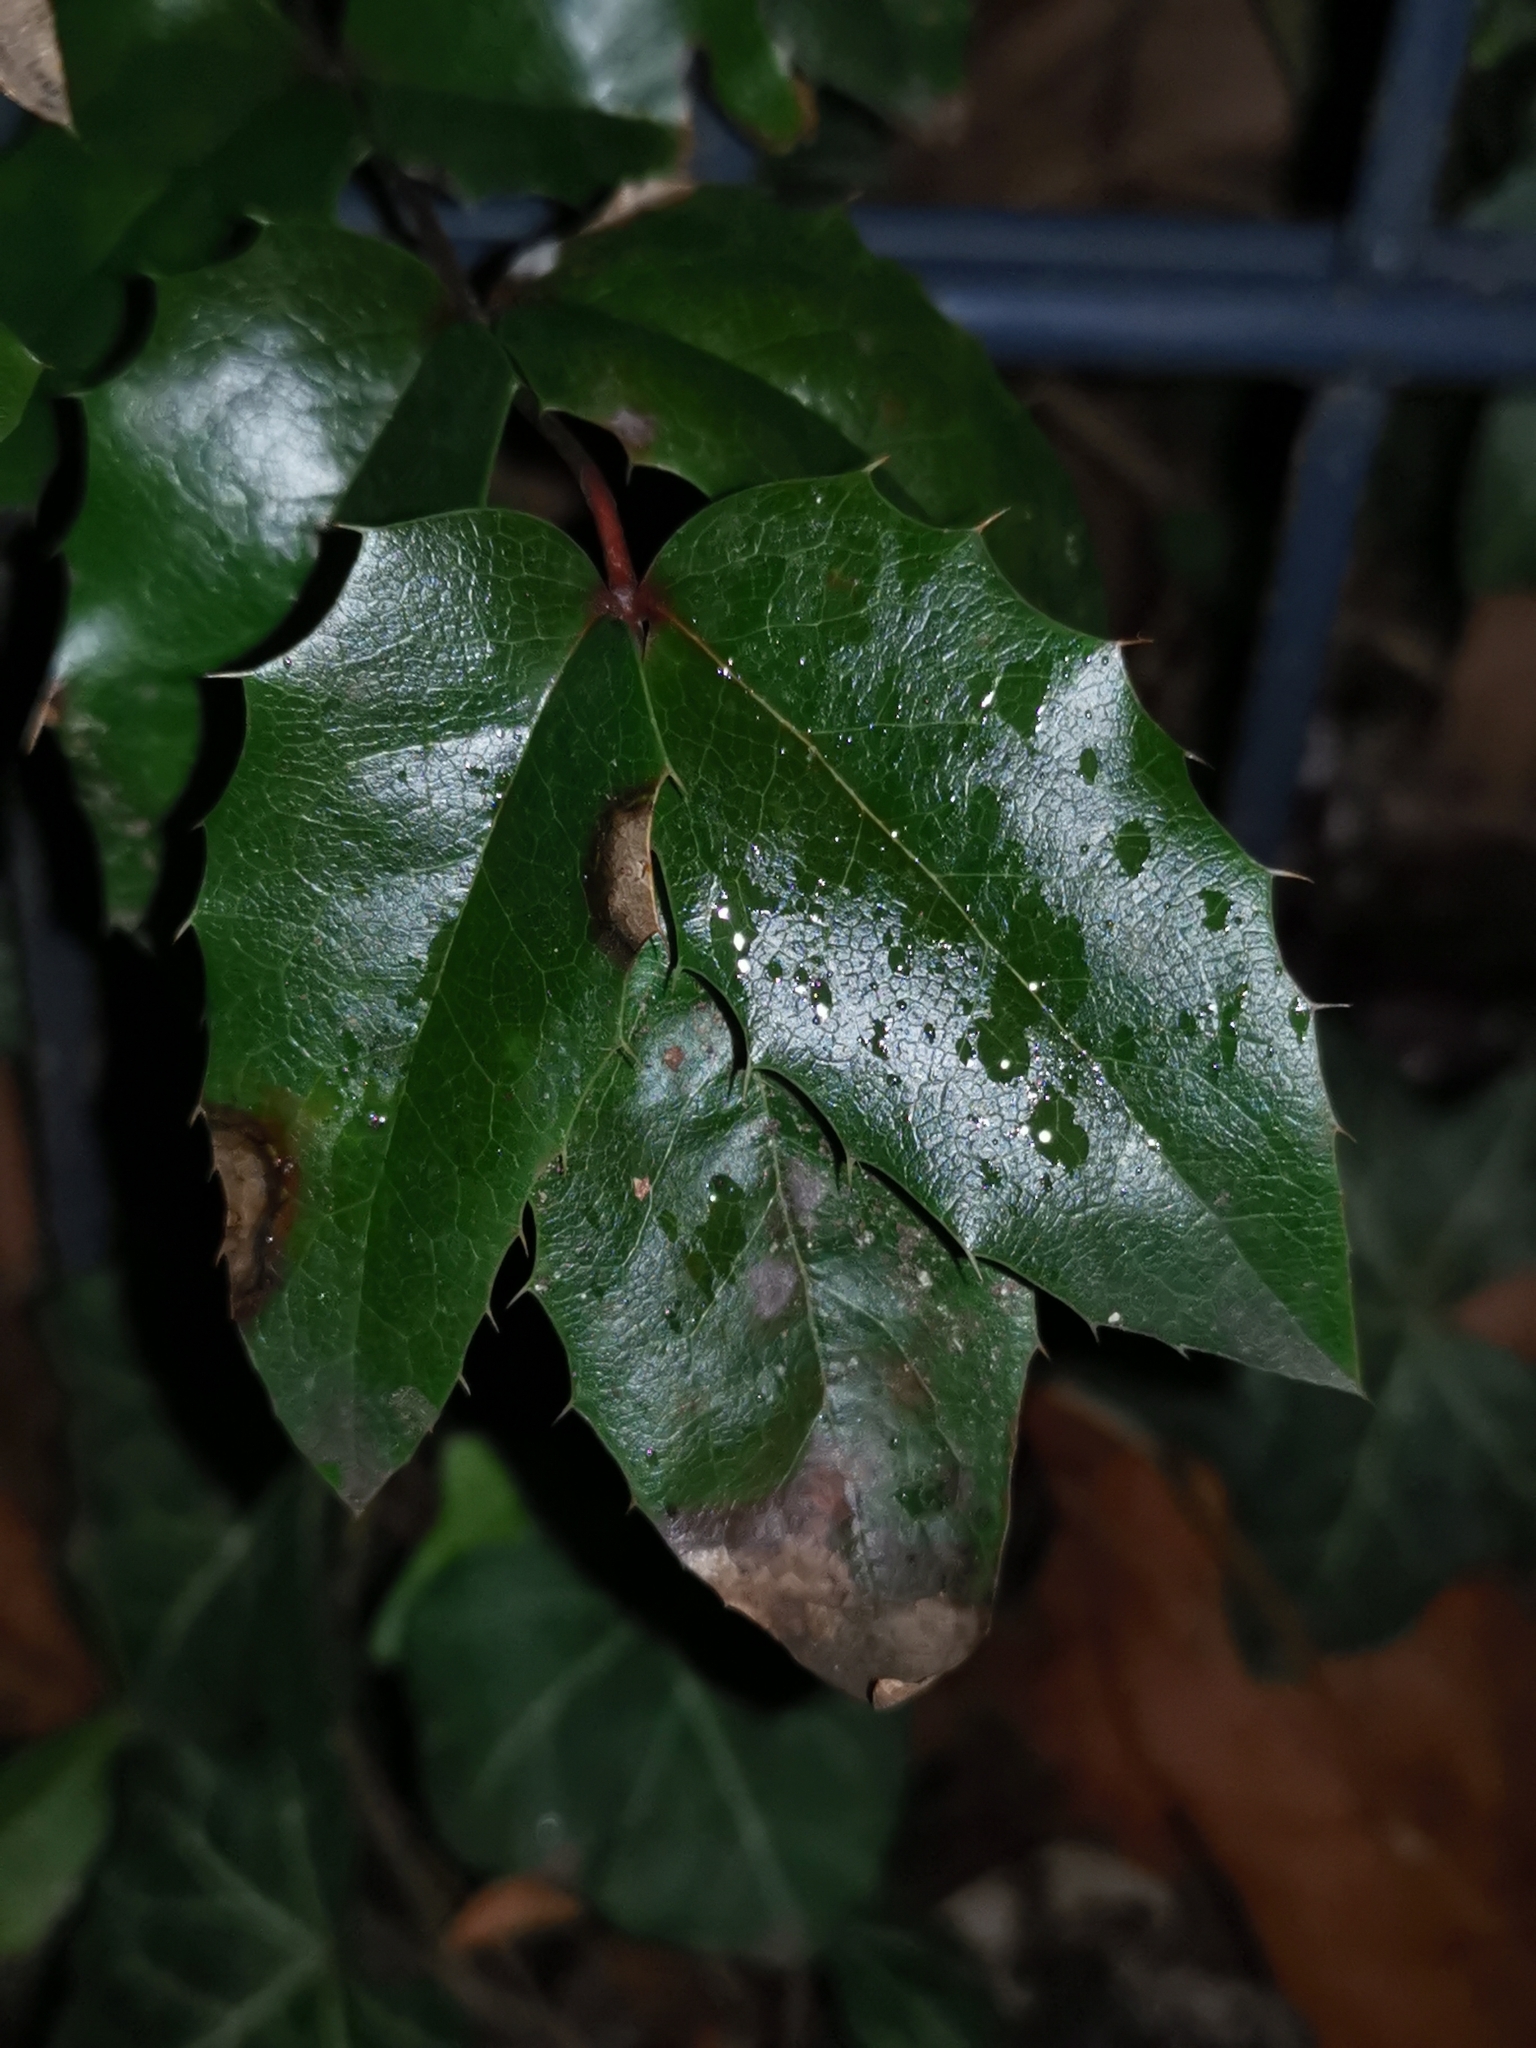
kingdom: Plantae
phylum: Tracheophyta
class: Magnoliopsida
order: Ranunculales
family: Berberidaceae
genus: Mahonia
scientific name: Mahonia aquifolium
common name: Oregon-grape
